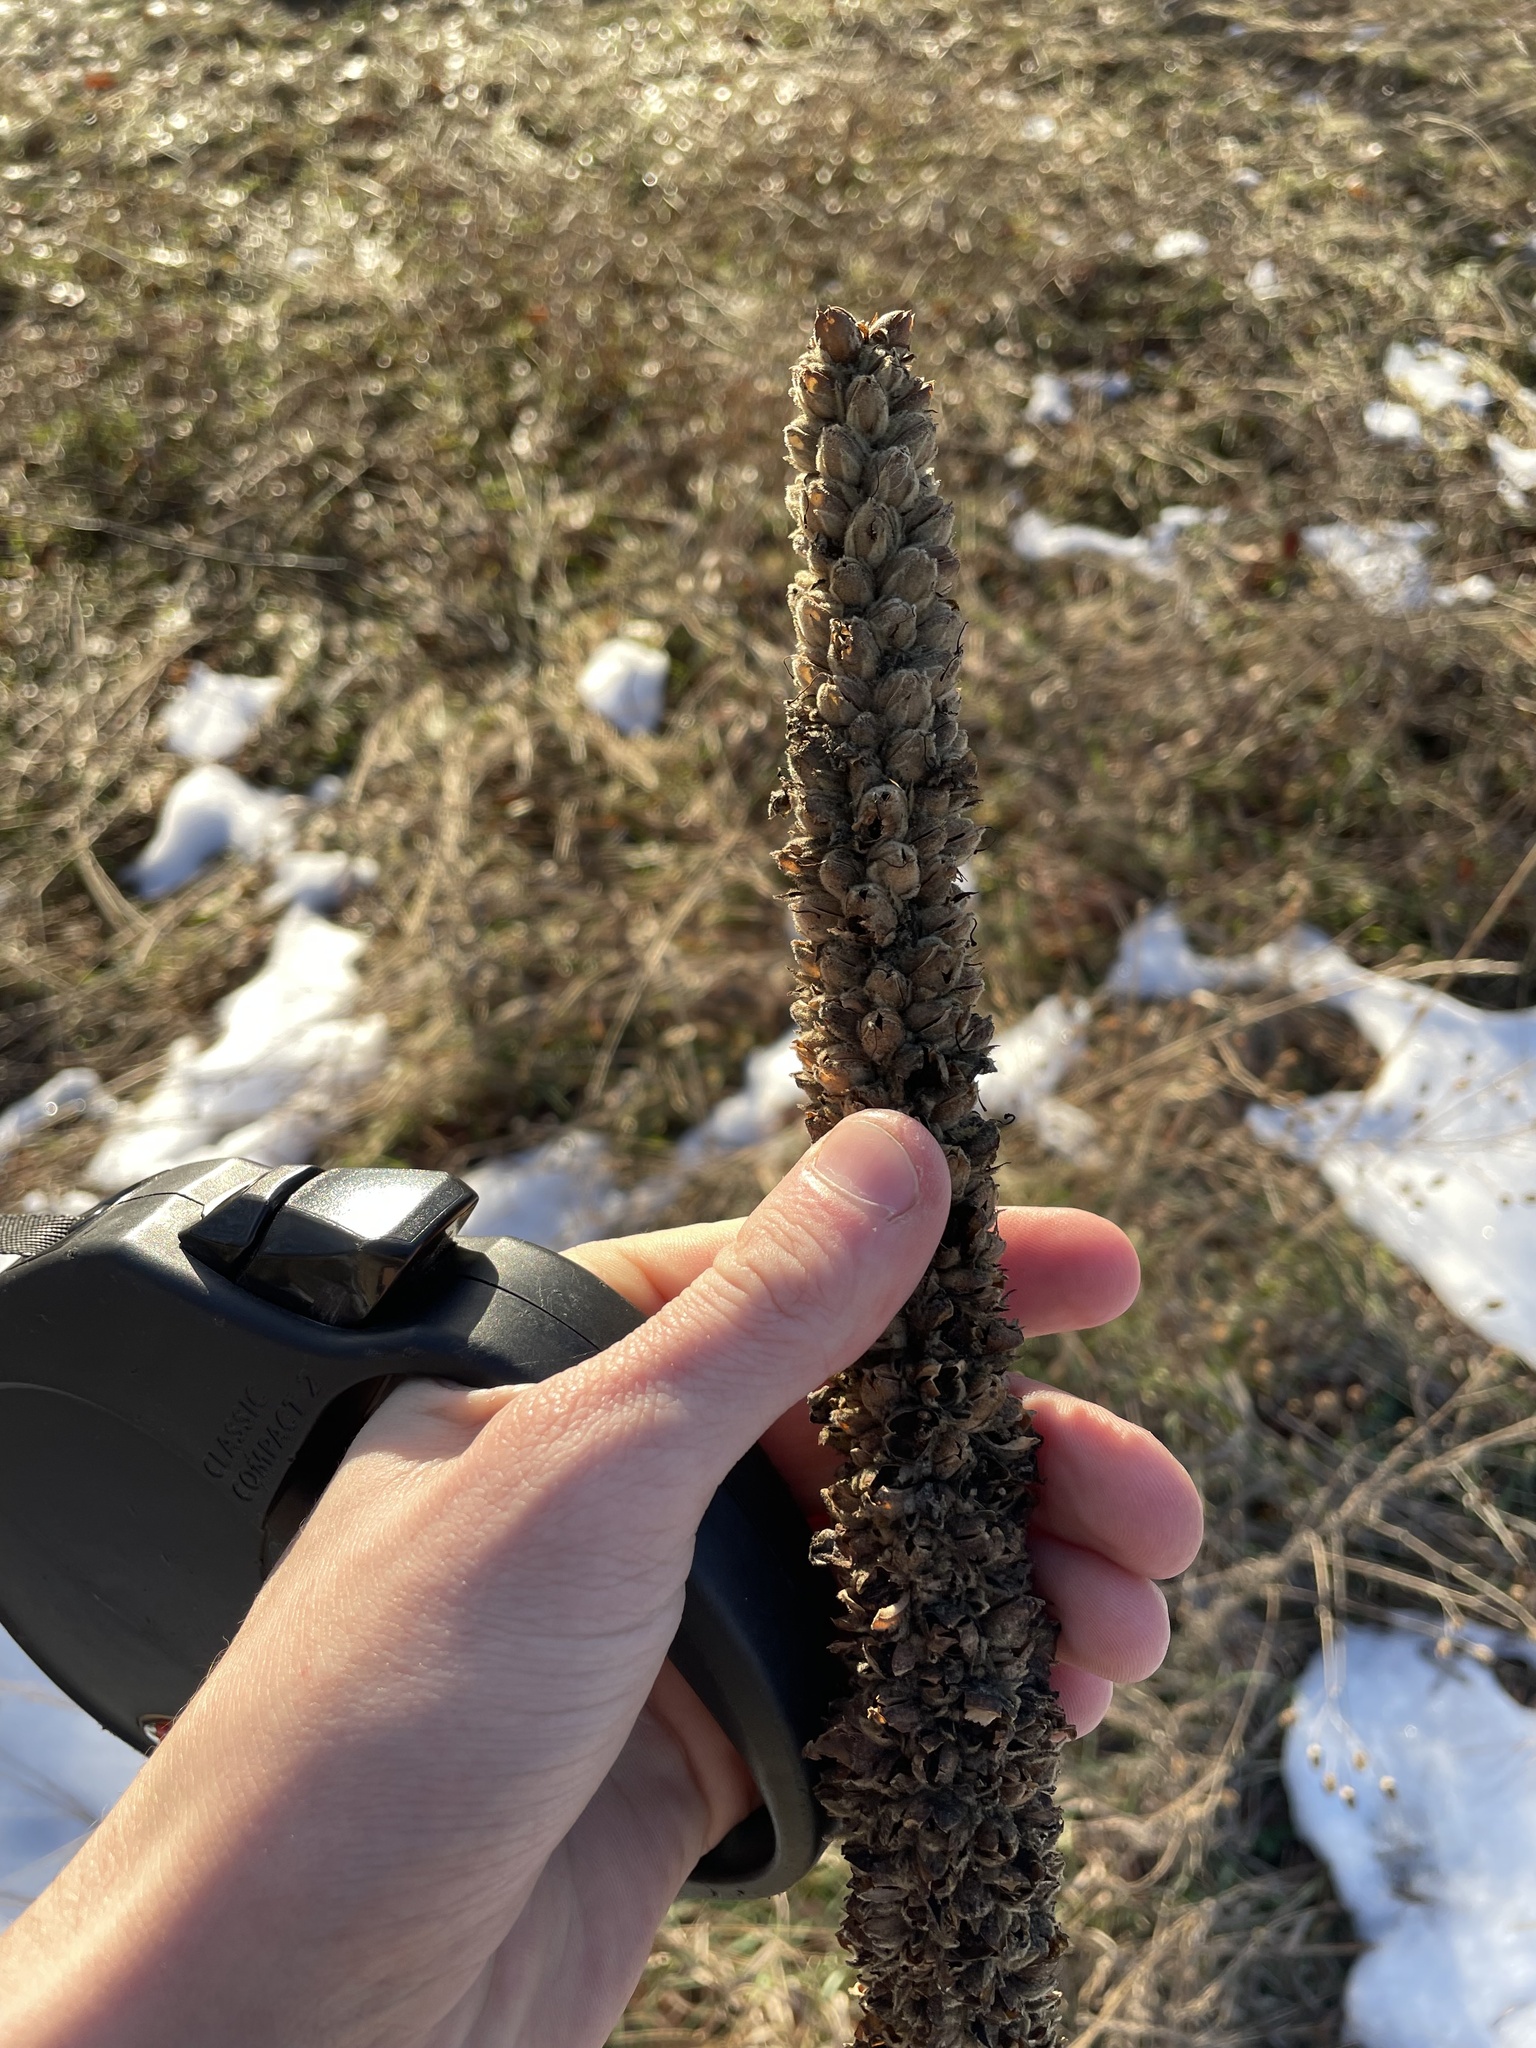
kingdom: Plantae
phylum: Tracheophyta
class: Magnoliopsida
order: Lamiales
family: Scrophulariaceae
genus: Verbascum
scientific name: Verbascum thapsus
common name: Common mullein
